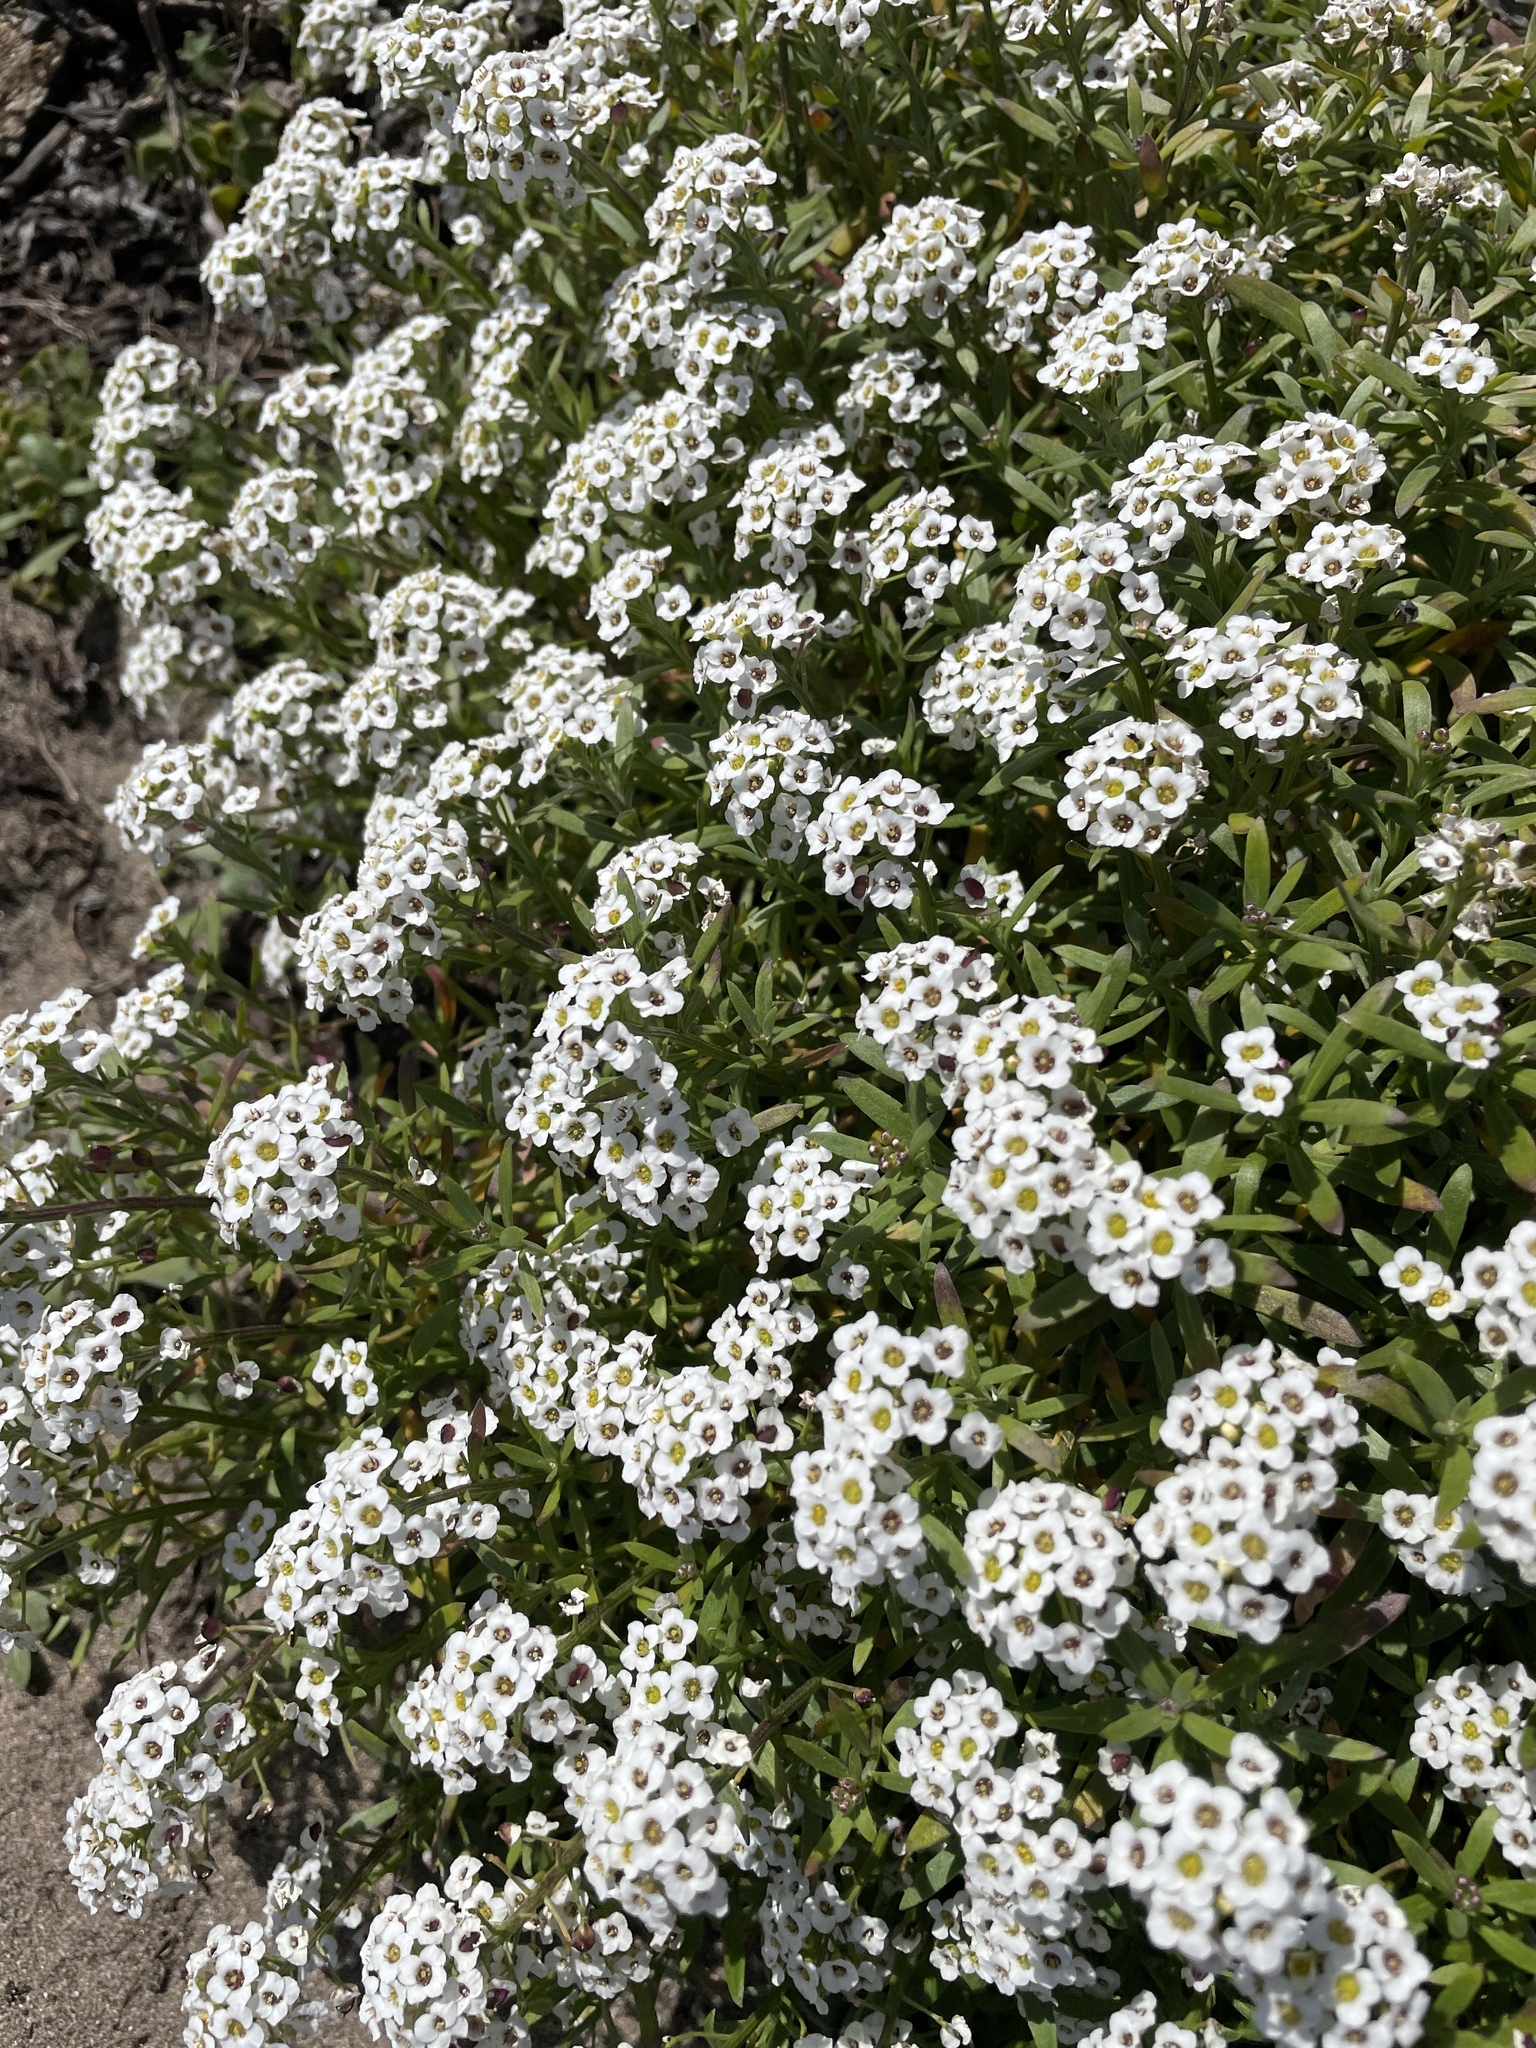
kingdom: Plantae
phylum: Tracheophyta
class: Magnoliopsida
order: Brassicales
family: Brassicaceae
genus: Lobularia
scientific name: Lobularia maritima
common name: Sweet alison
